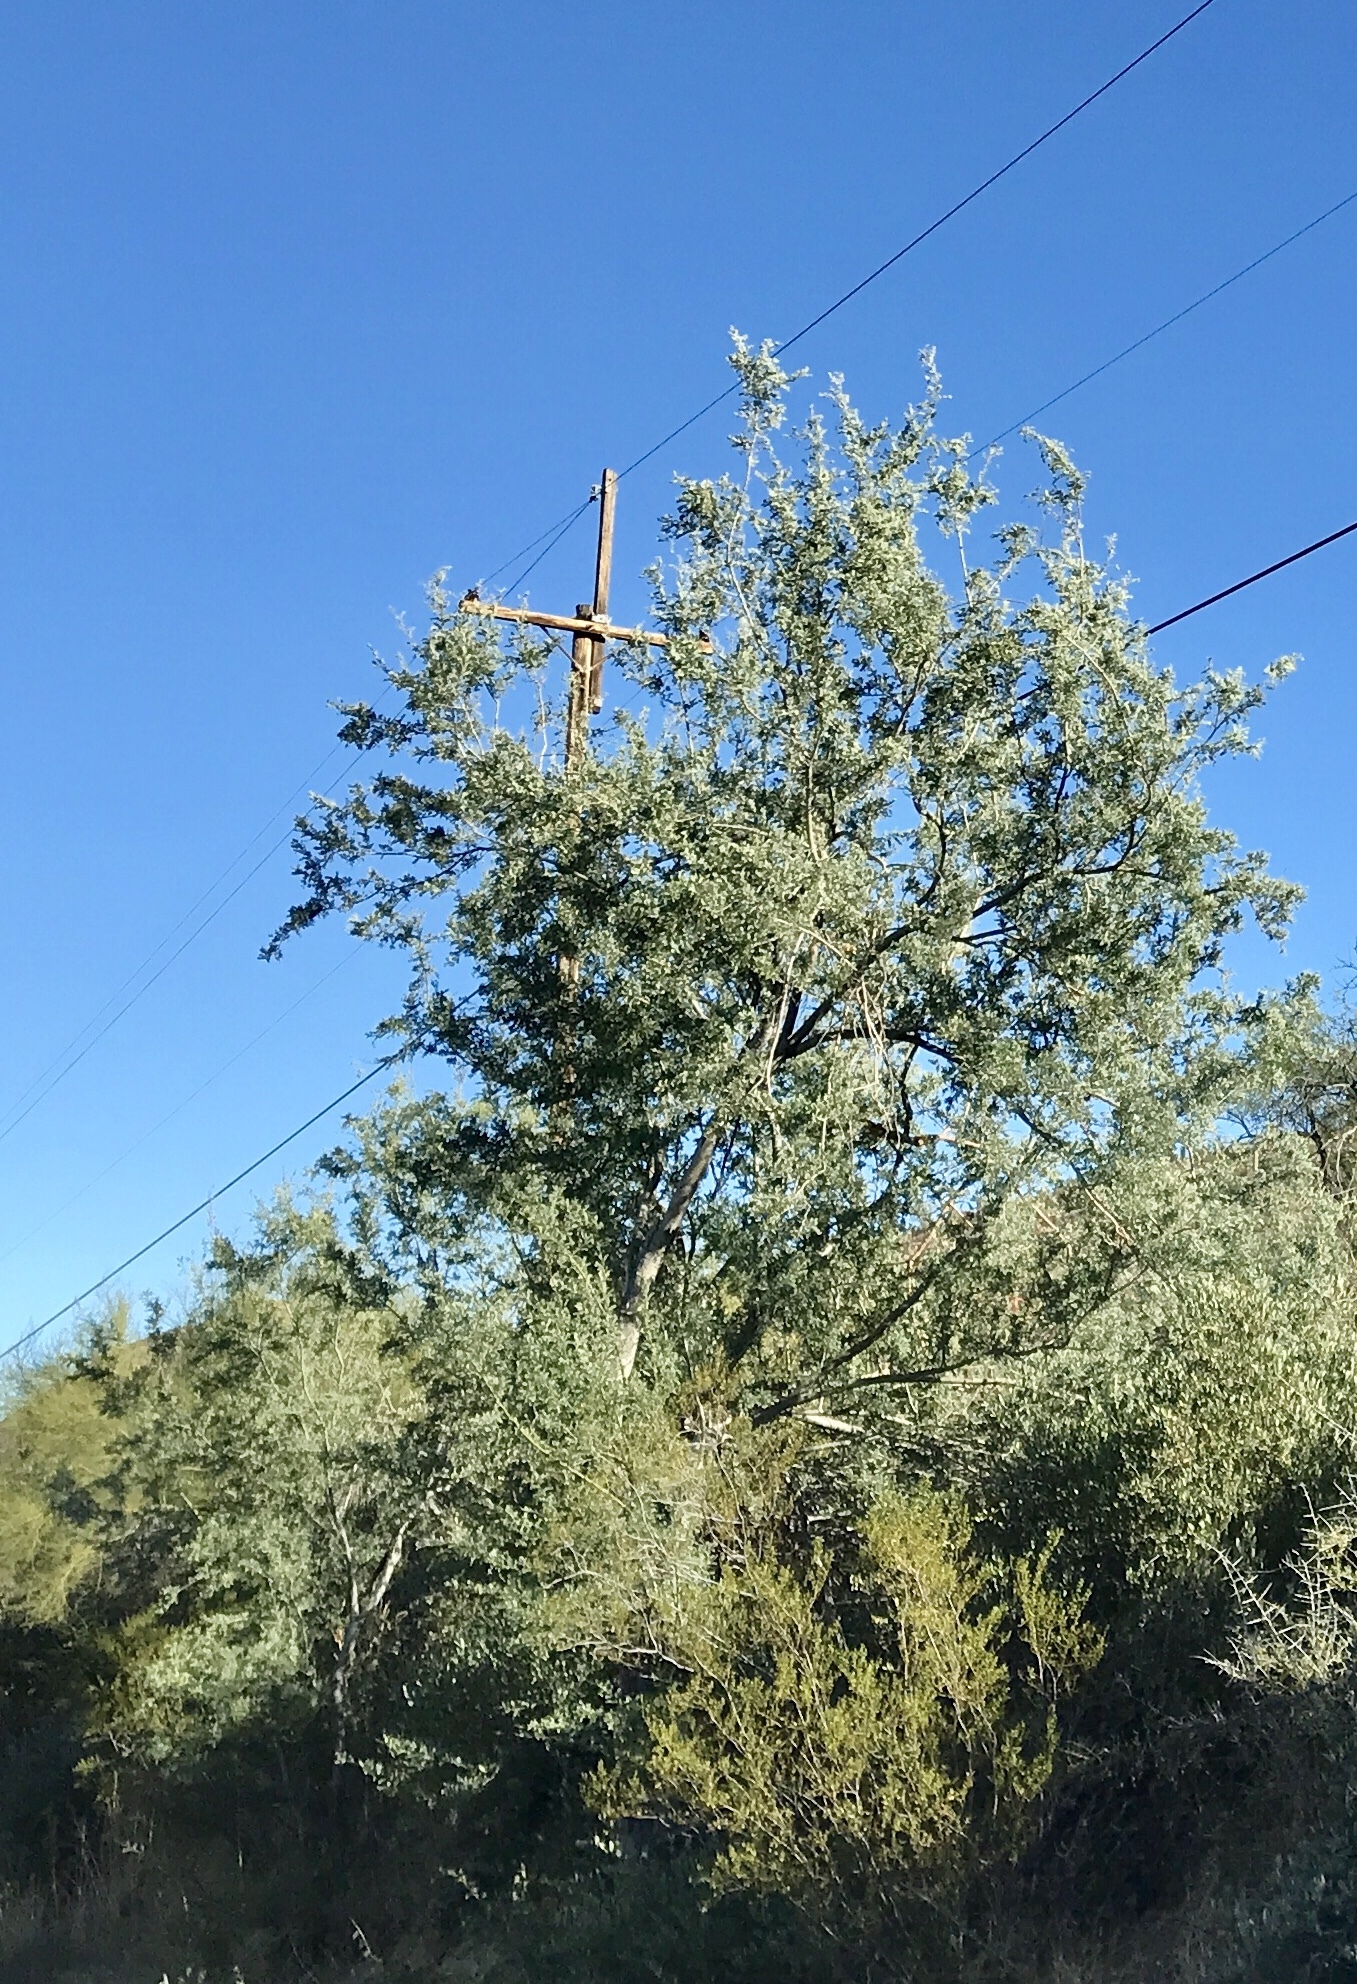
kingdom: Plantae
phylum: Tracheophyta
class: Magnoliopsida
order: Fabales
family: Fabaceae
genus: Olneya
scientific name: Olneya tesota
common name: Desert ironwood
